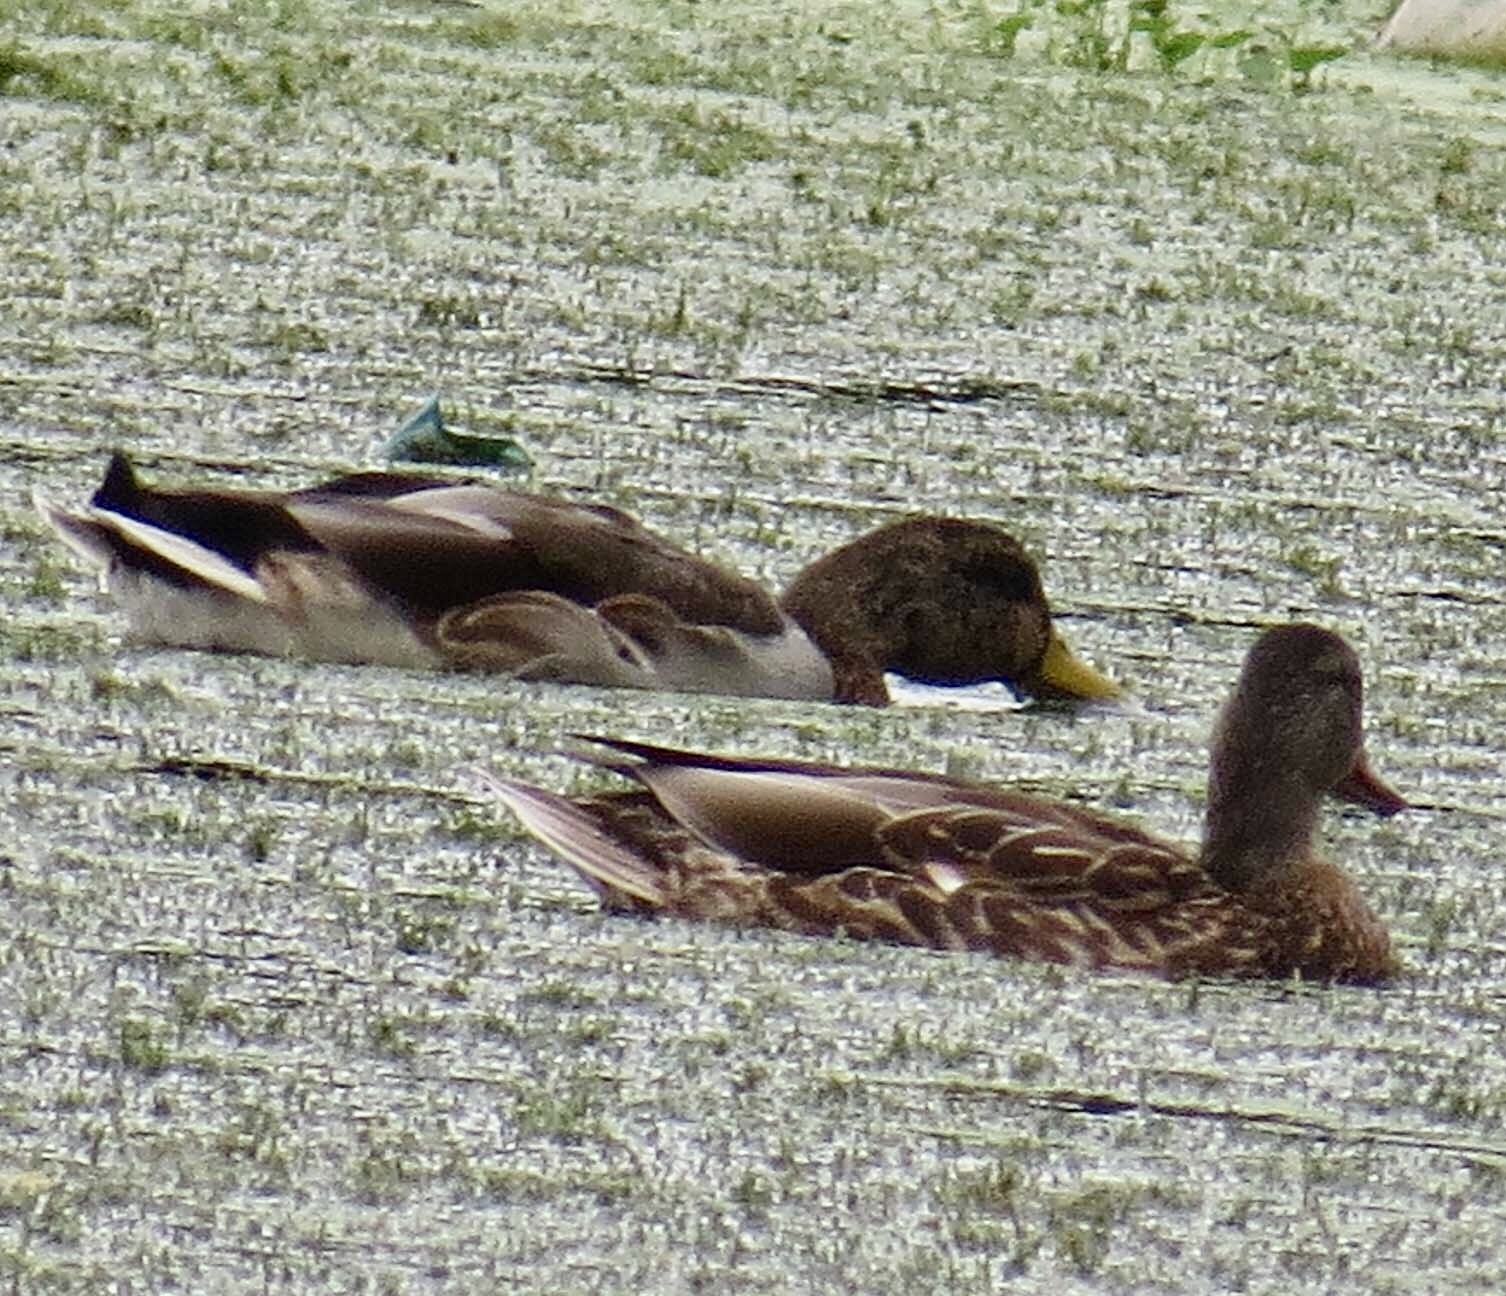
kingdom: Animalia
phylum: Chordata
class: Aves
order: Anseriformes
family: Anatidae
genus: Anas
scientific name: Anas platyrhynchos
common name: Mallard
